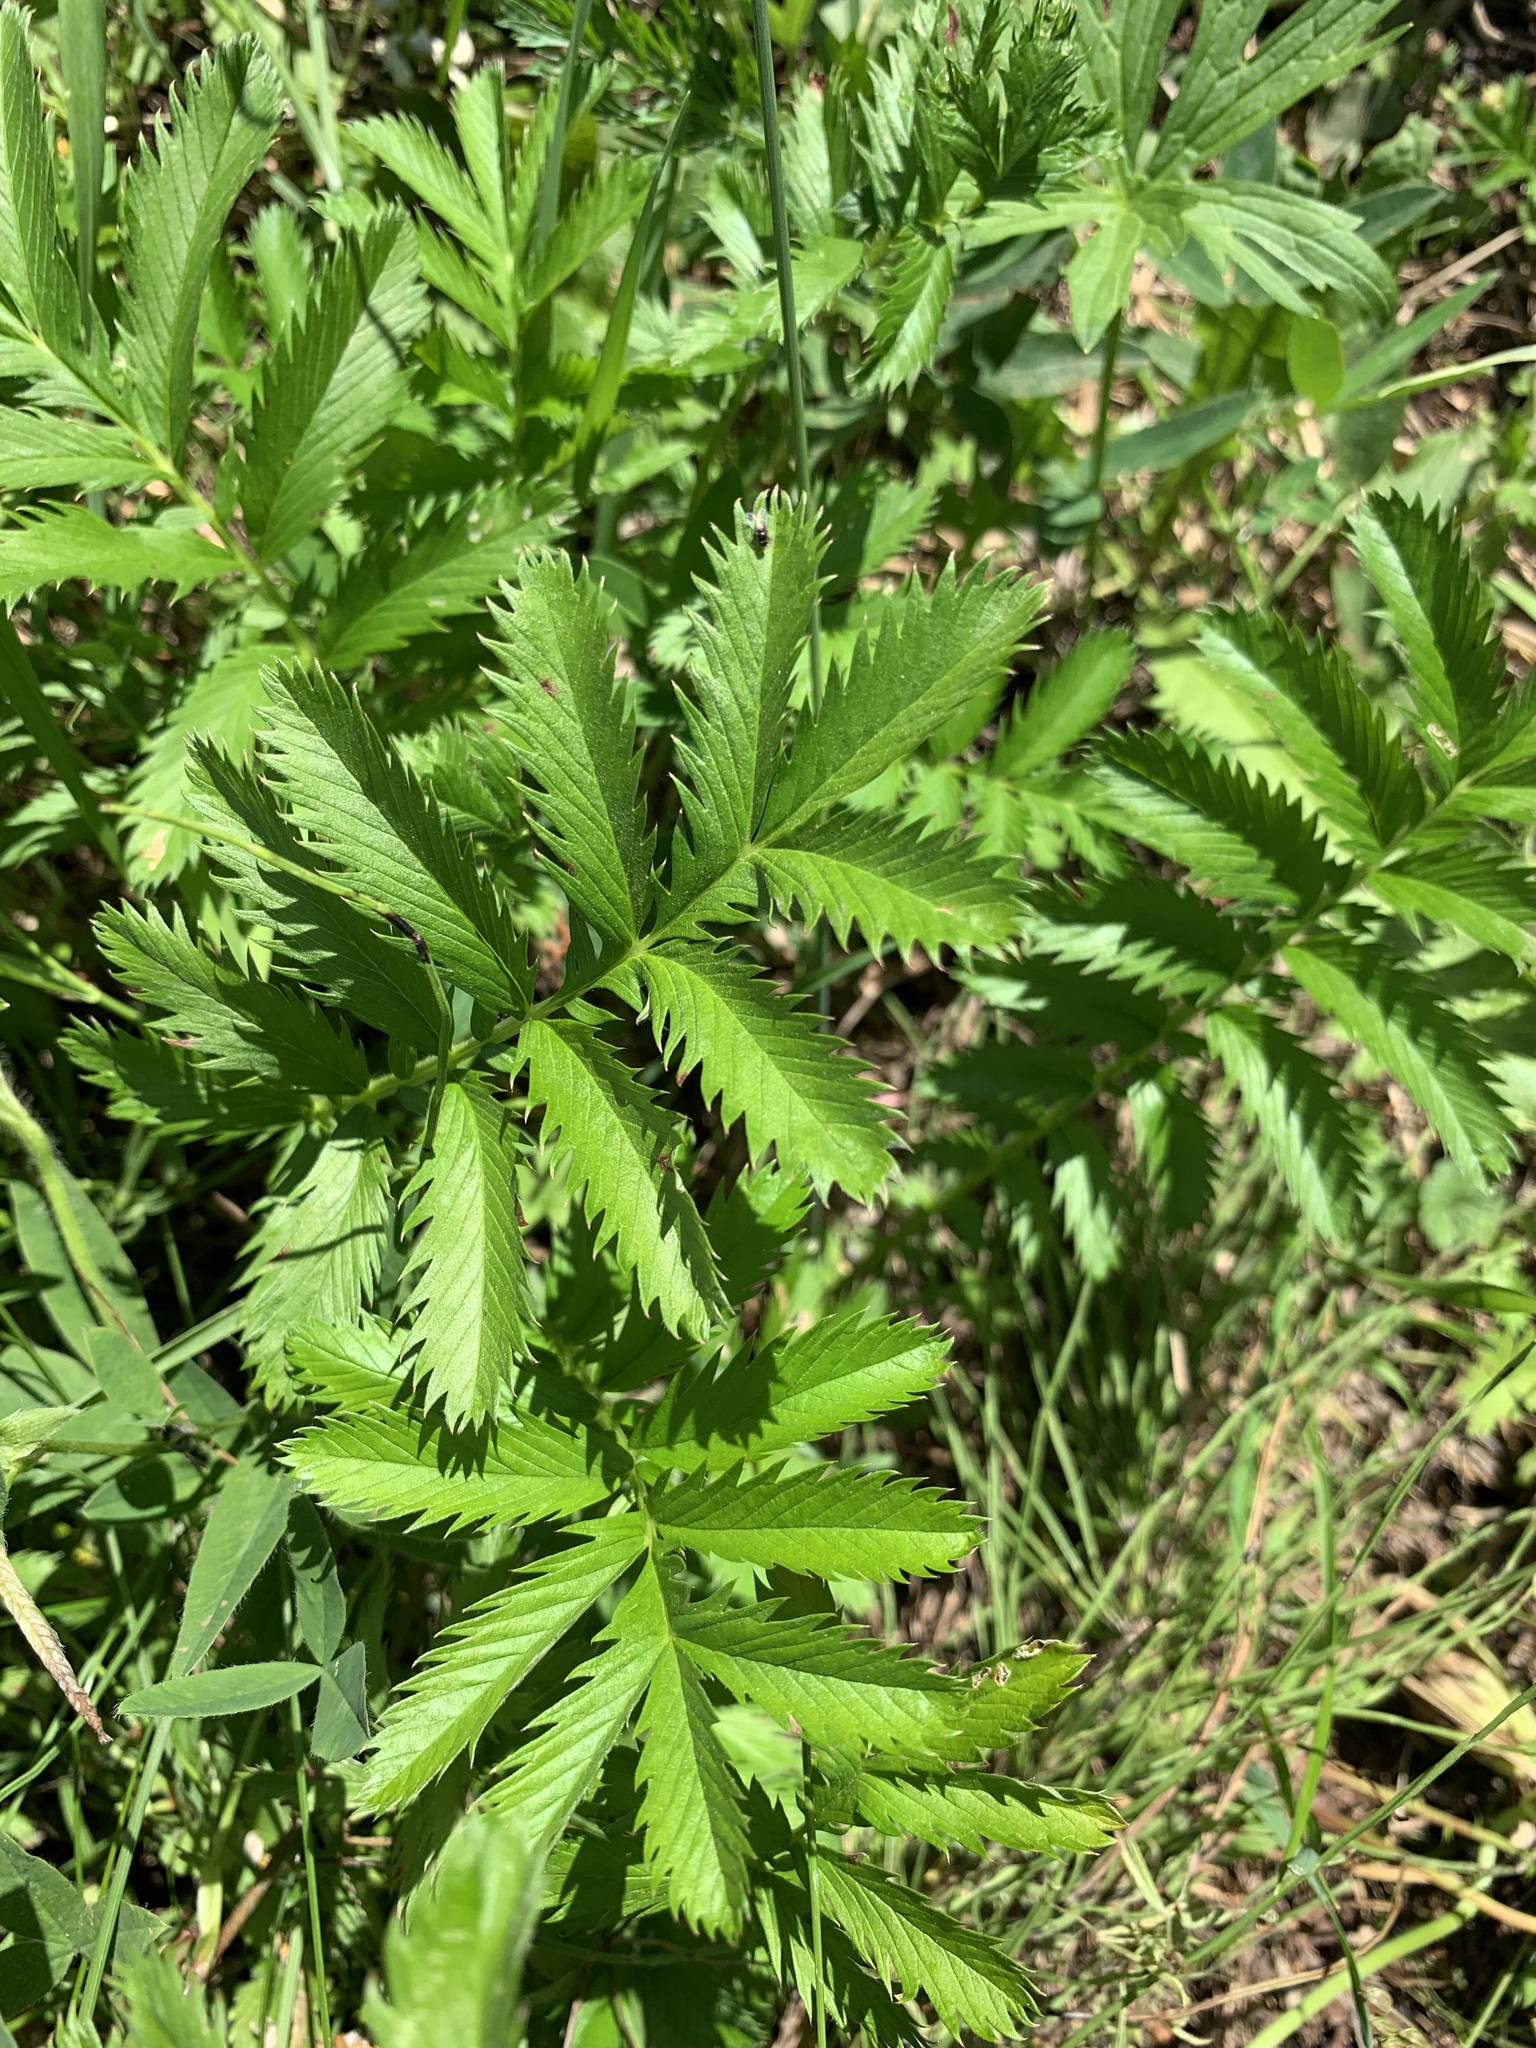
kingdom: Plantae
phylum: Tracheophyta
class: Magnoliopsida
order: Rosales
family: Rosaceae
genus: Argentina
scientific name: Argentina anserina
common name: Common silverweed
